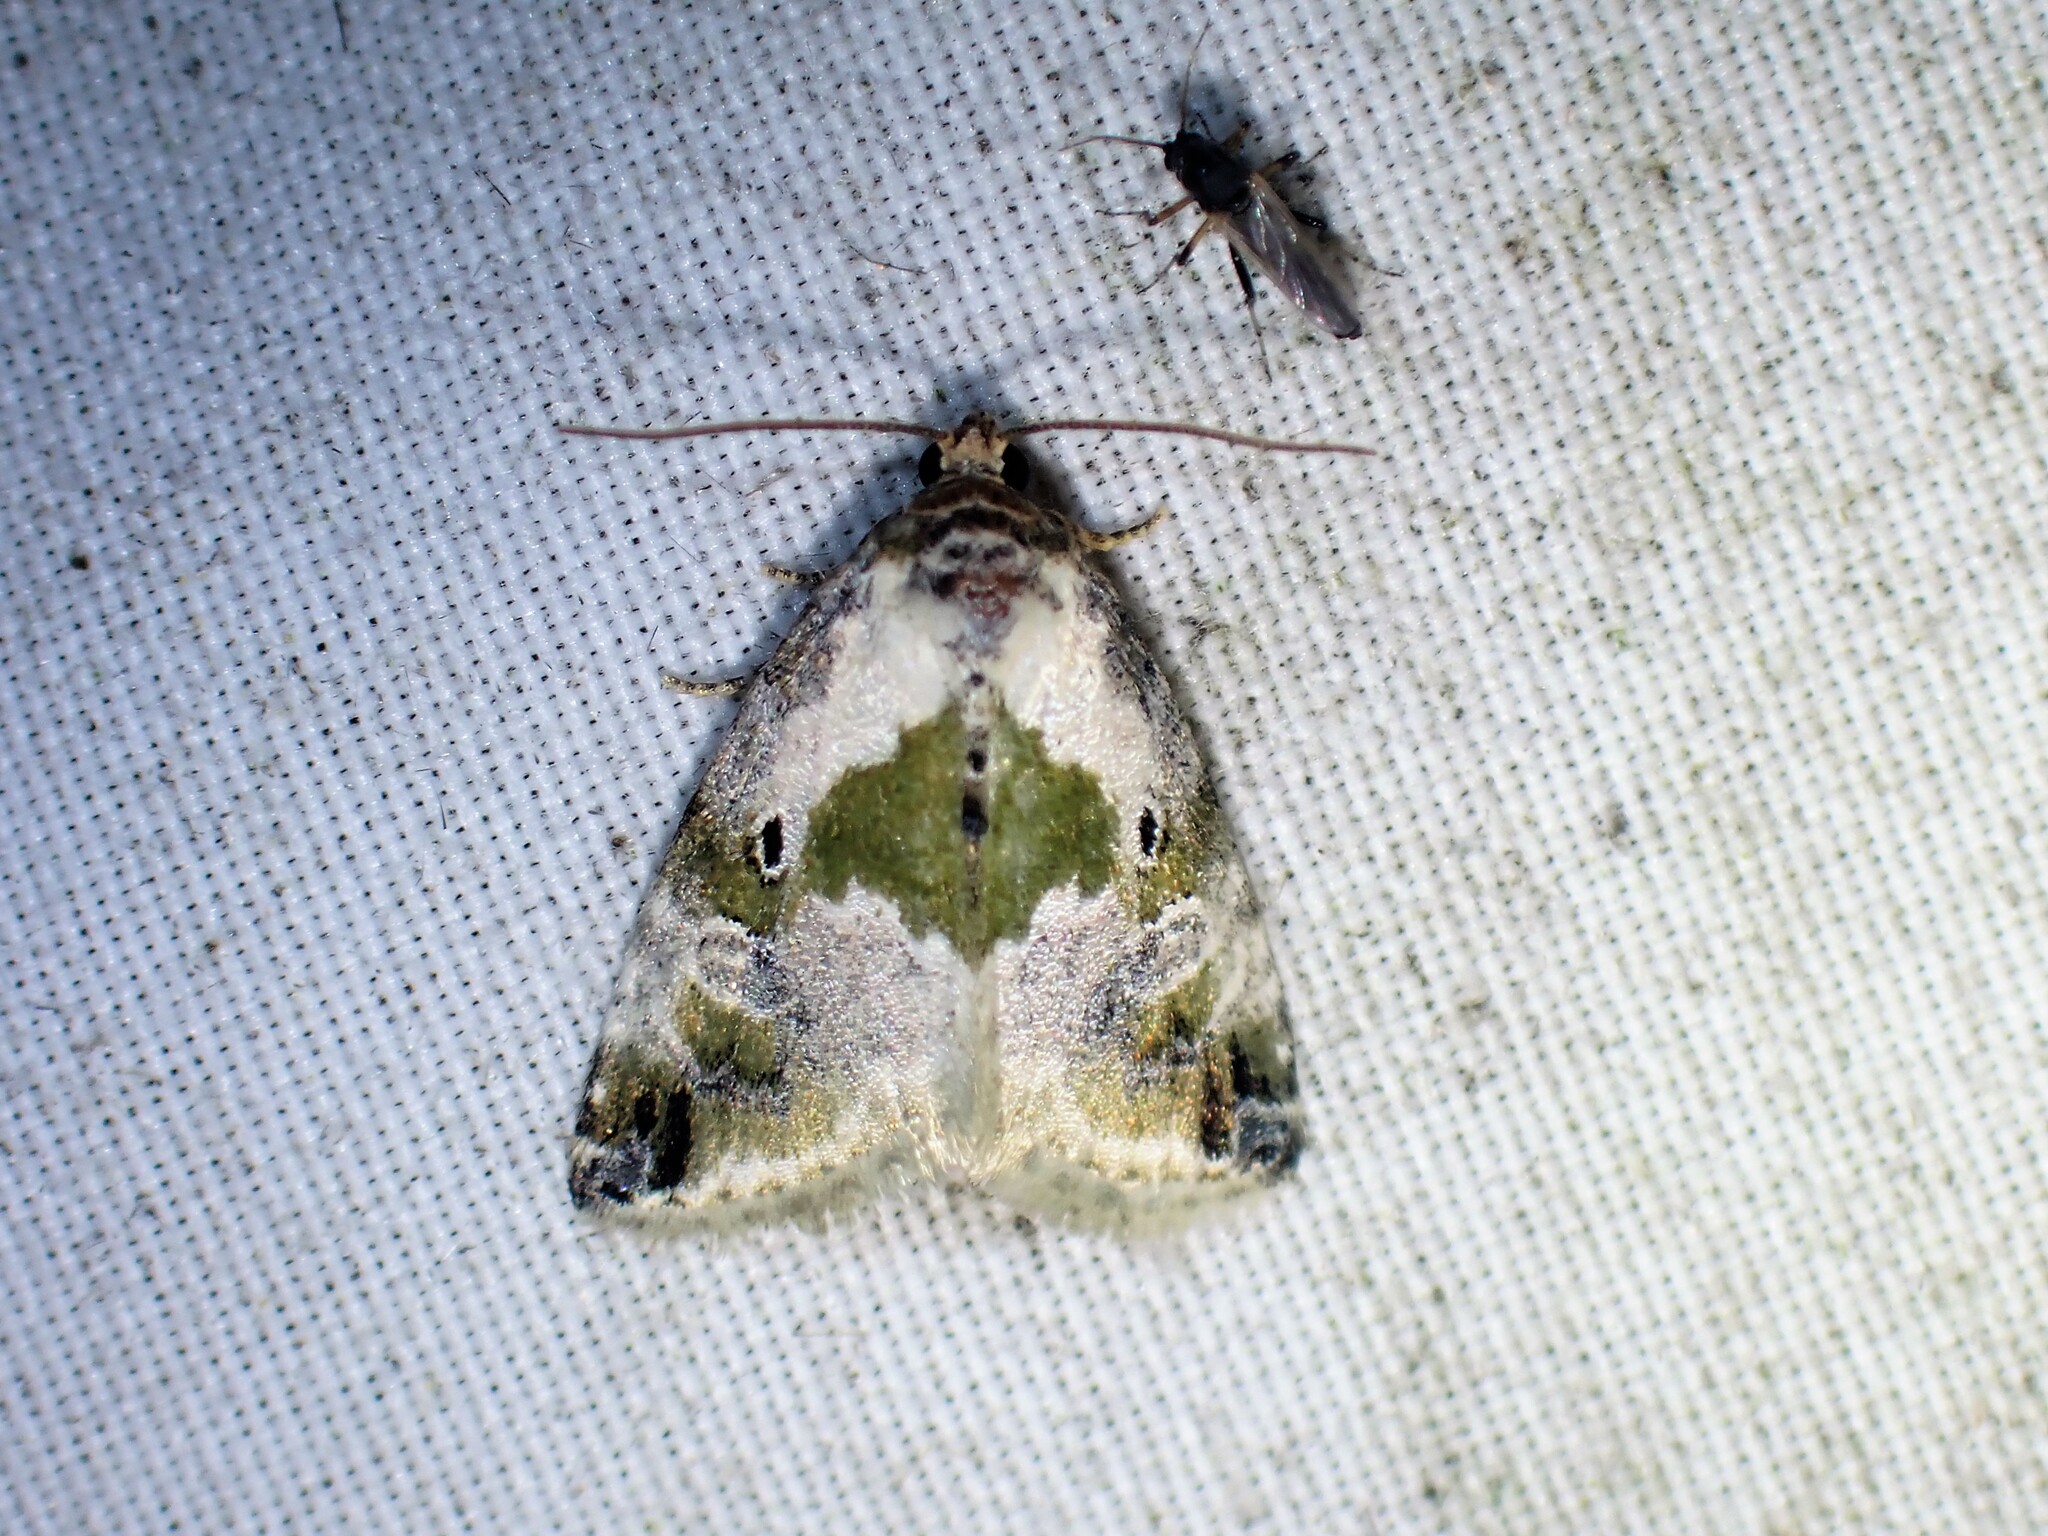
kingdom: Animalia
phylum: Arthropoda
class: Insecta
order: Lepidoptera
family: Noctuidae
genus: Maliattha
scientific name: Maliattha synochitis
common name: Black-dotted glyph
